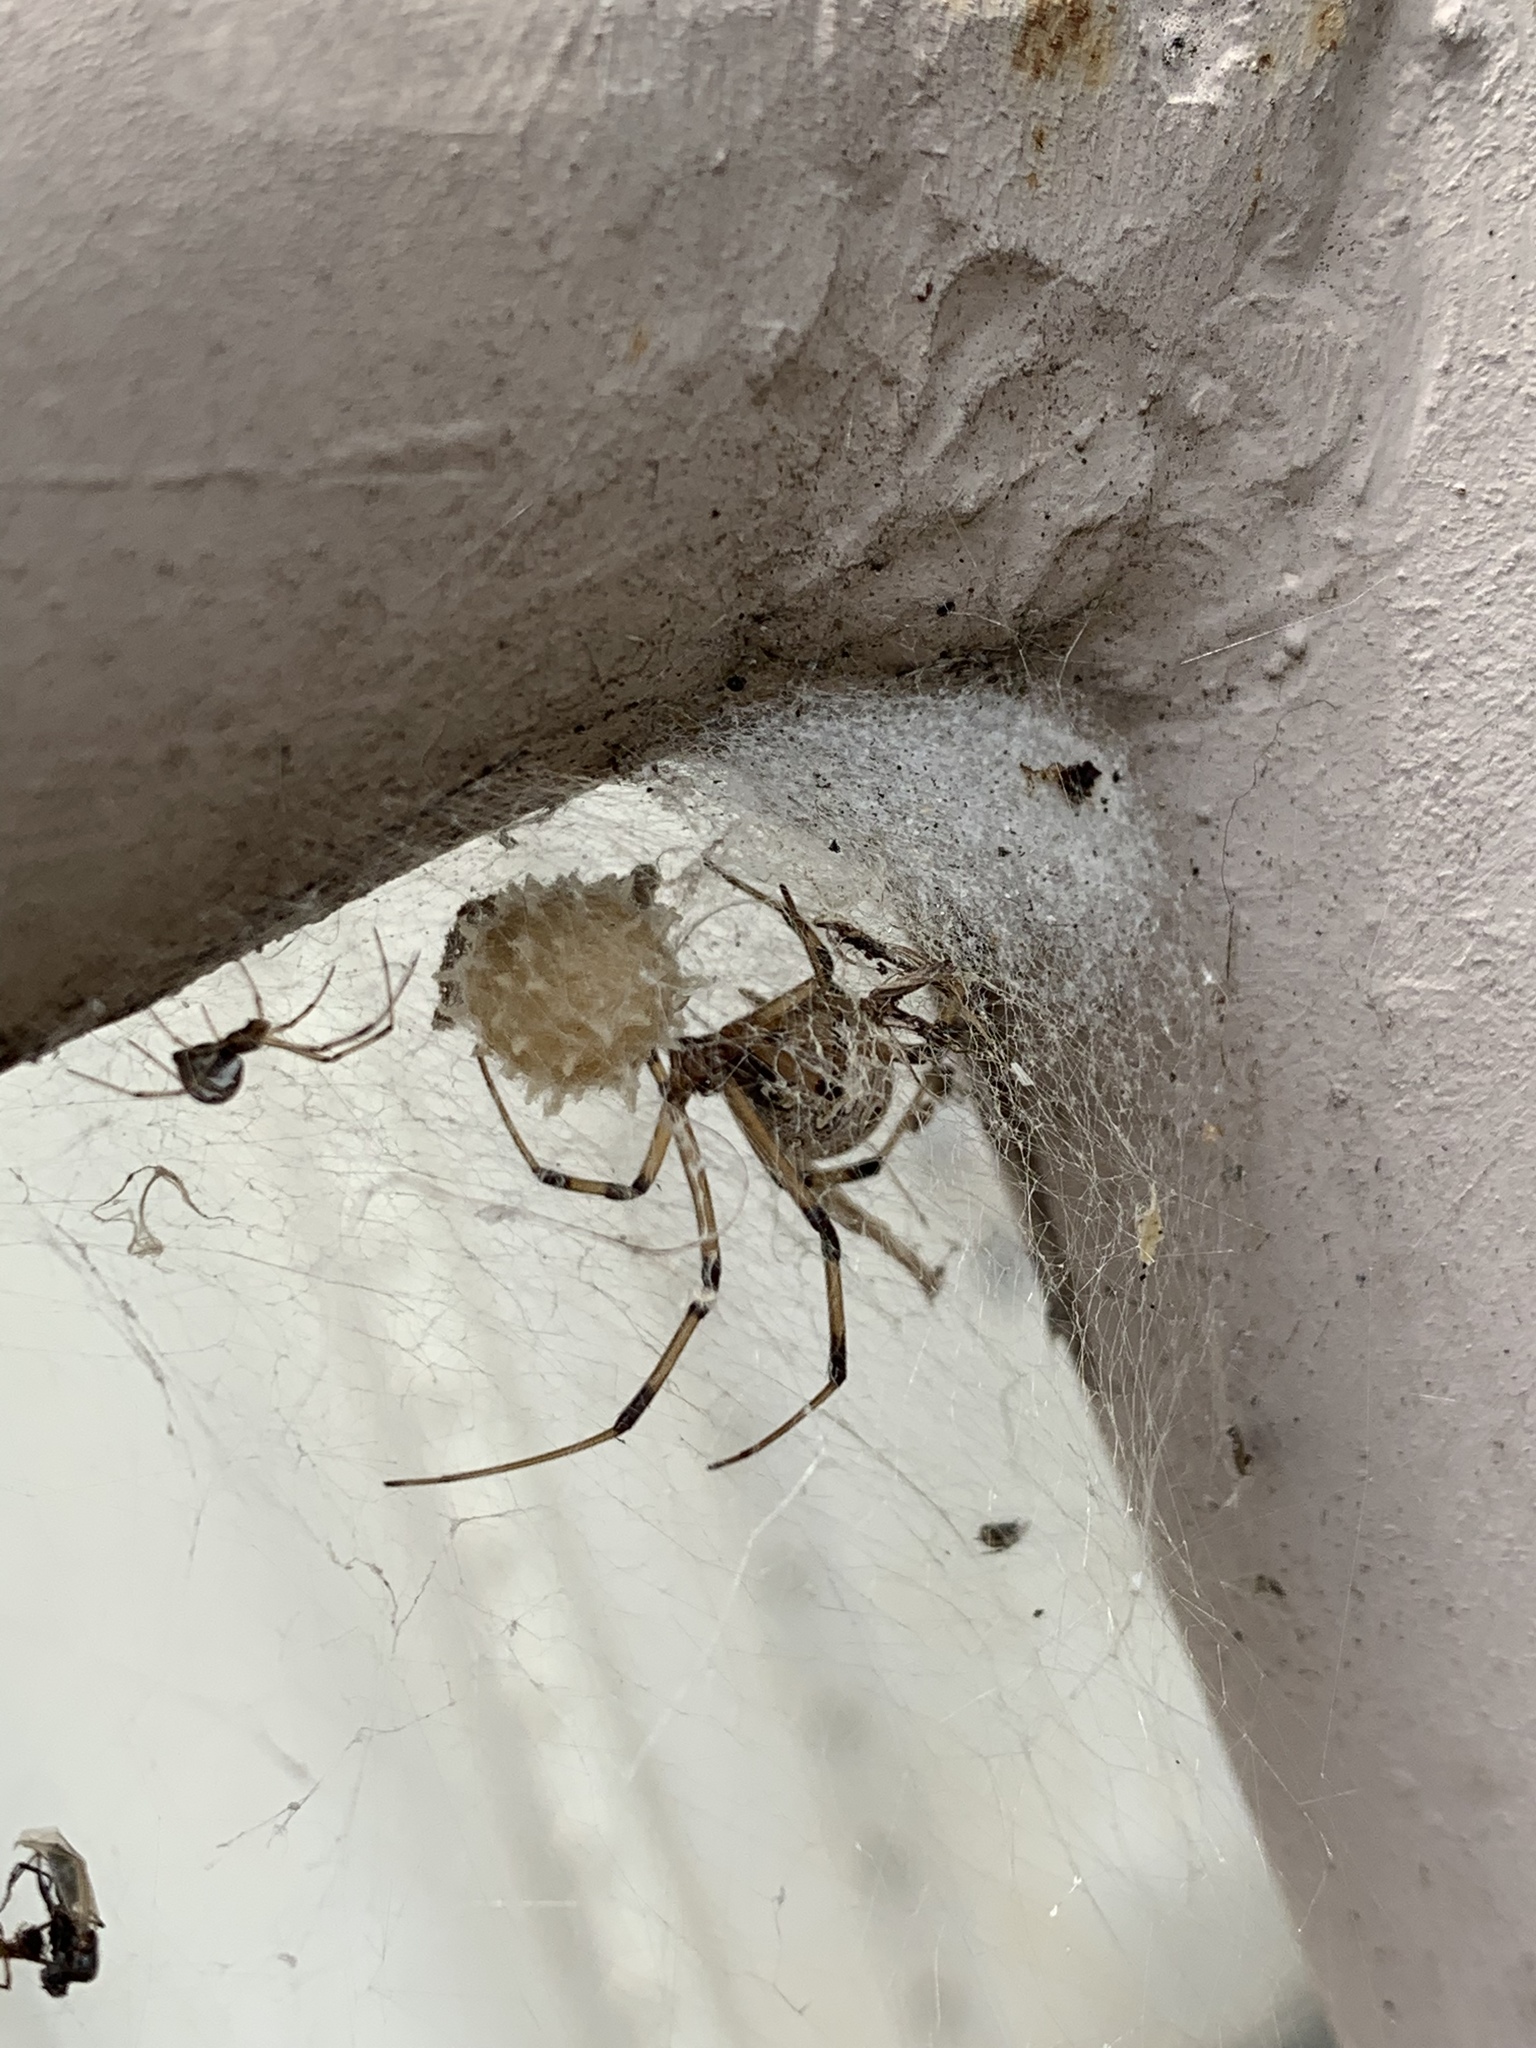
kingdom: Animalia
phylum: Arthropoda
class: Arachnida
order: Araneae
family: Theridiidae
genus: Latrodectus
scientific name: Latrodectus geometricus
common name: Brown widow spider
